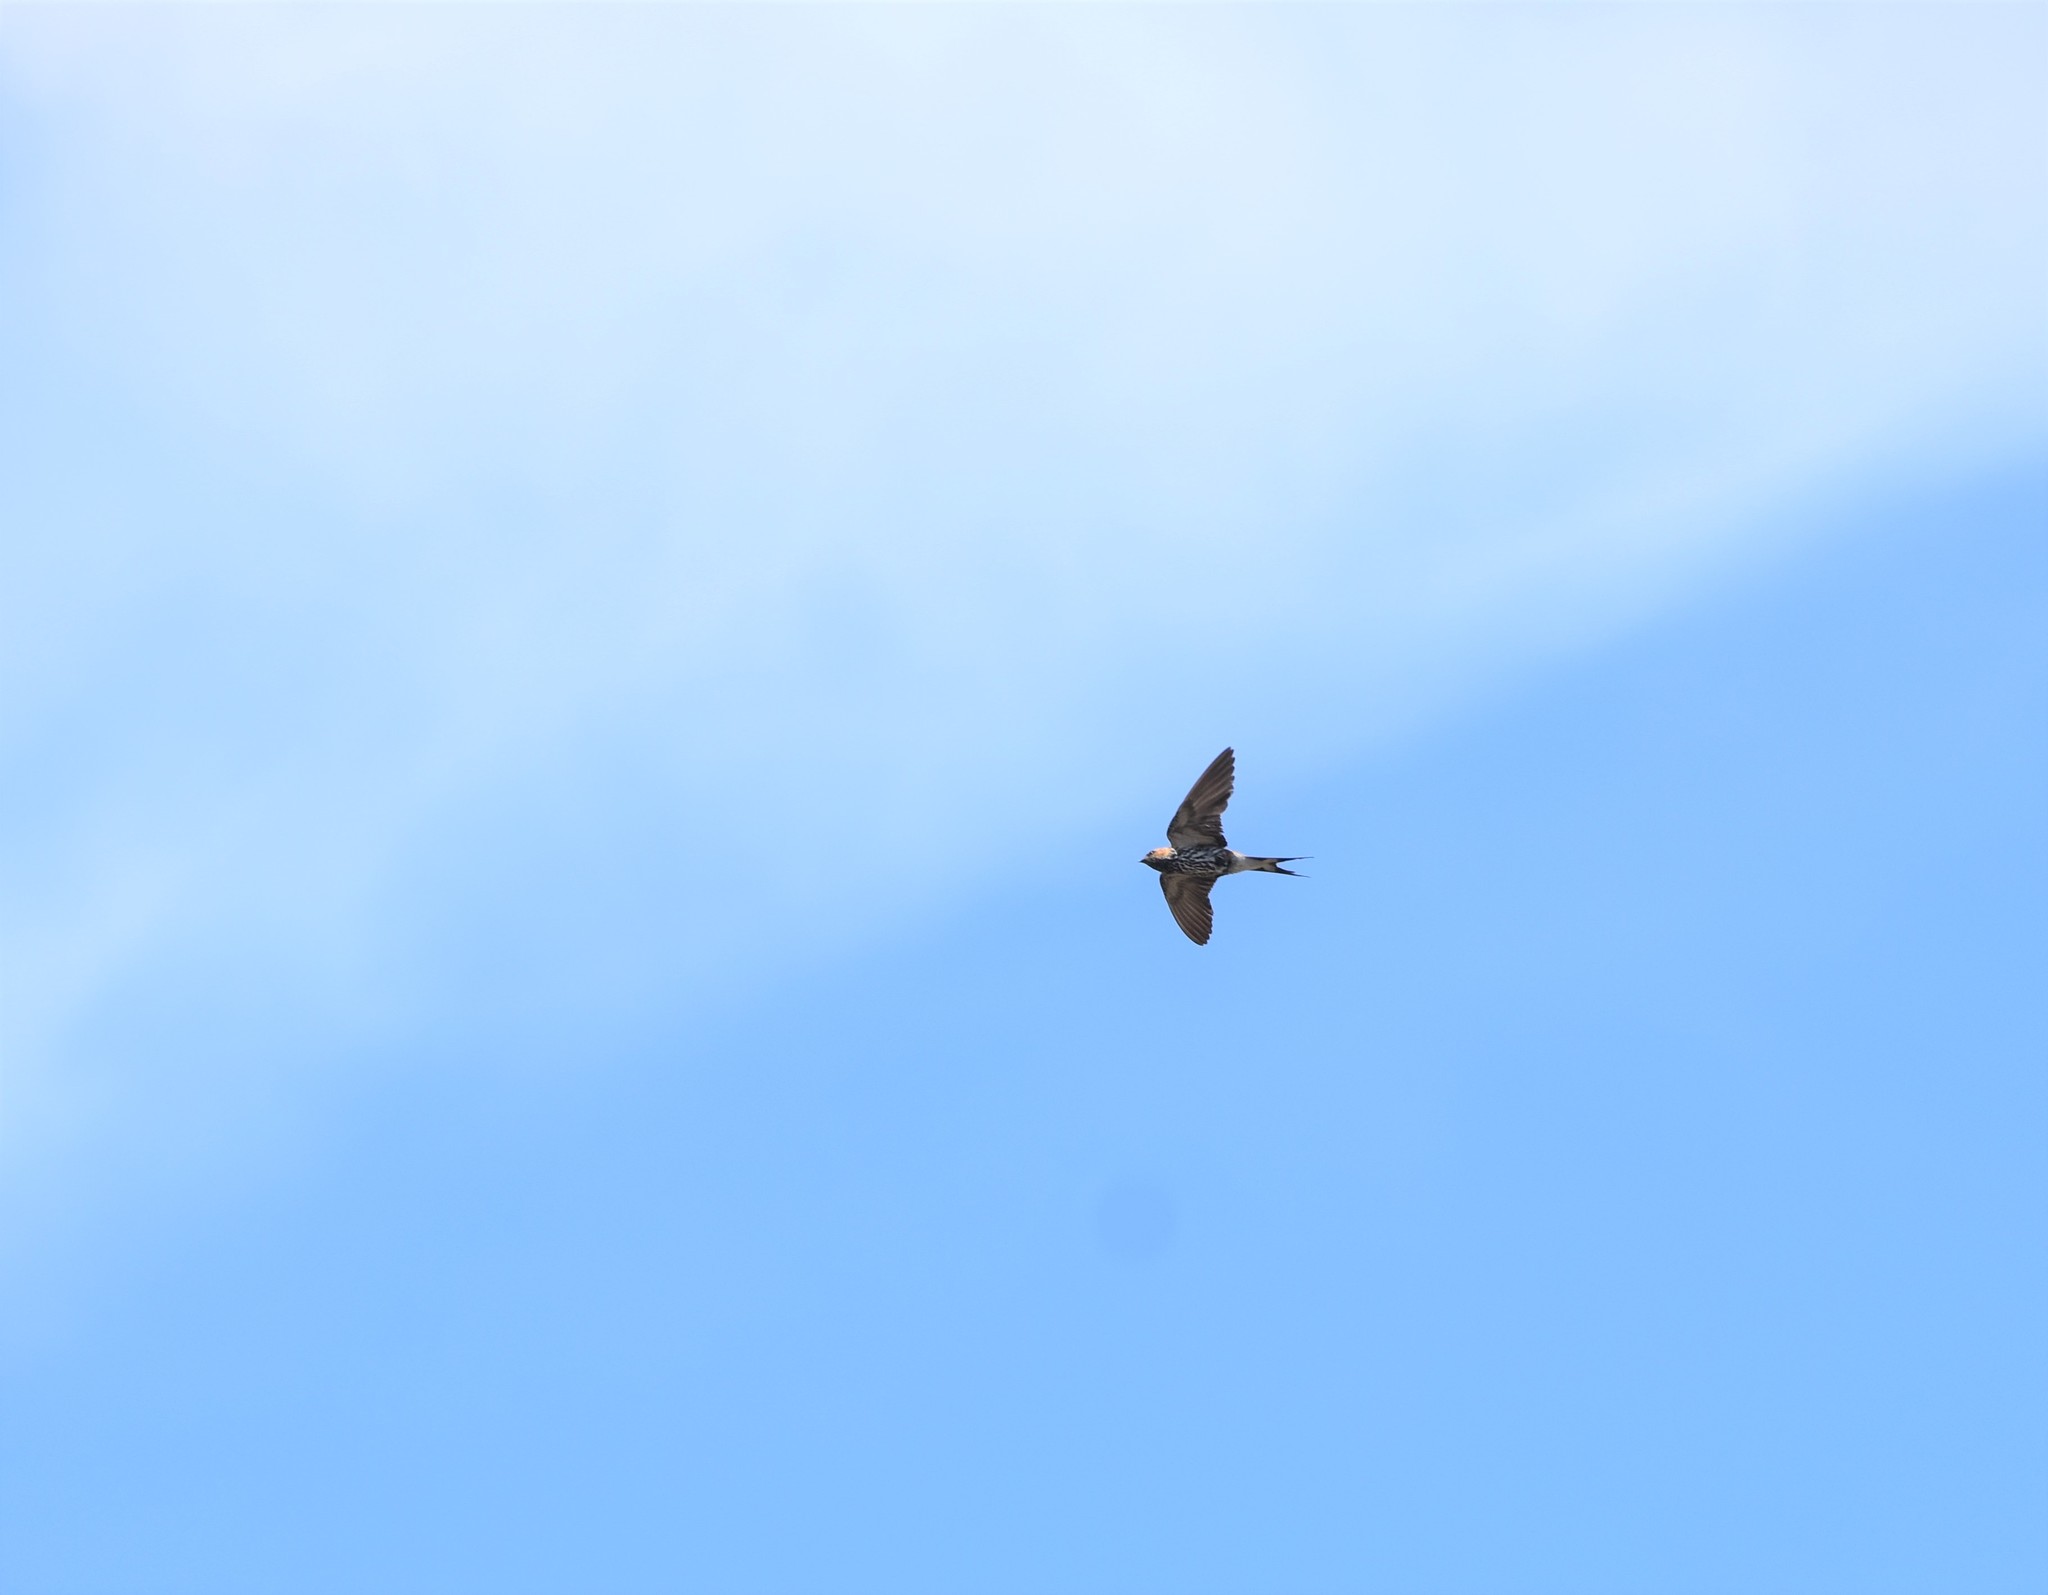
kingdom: Animalia
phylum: Chordata
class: Aves
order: Passeriformes
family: Hirundinidae
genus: Cecropis
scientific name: Cecropis abyssinica
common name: Lesser striped-swallow
